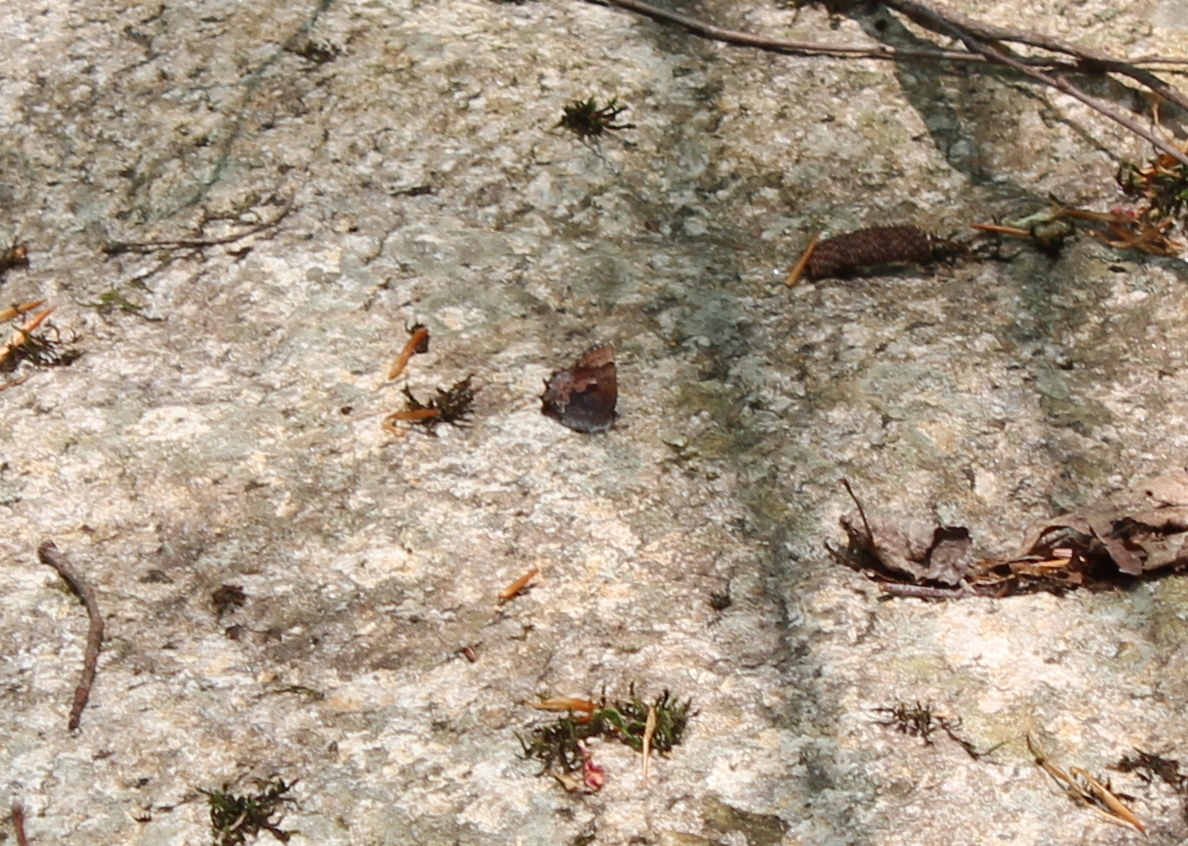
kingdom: Animalia
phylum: Arthropoda
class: Insecta
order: Lepidoptera
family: Lycaenidae
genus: Incisalia
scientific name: Incisalia henrici
